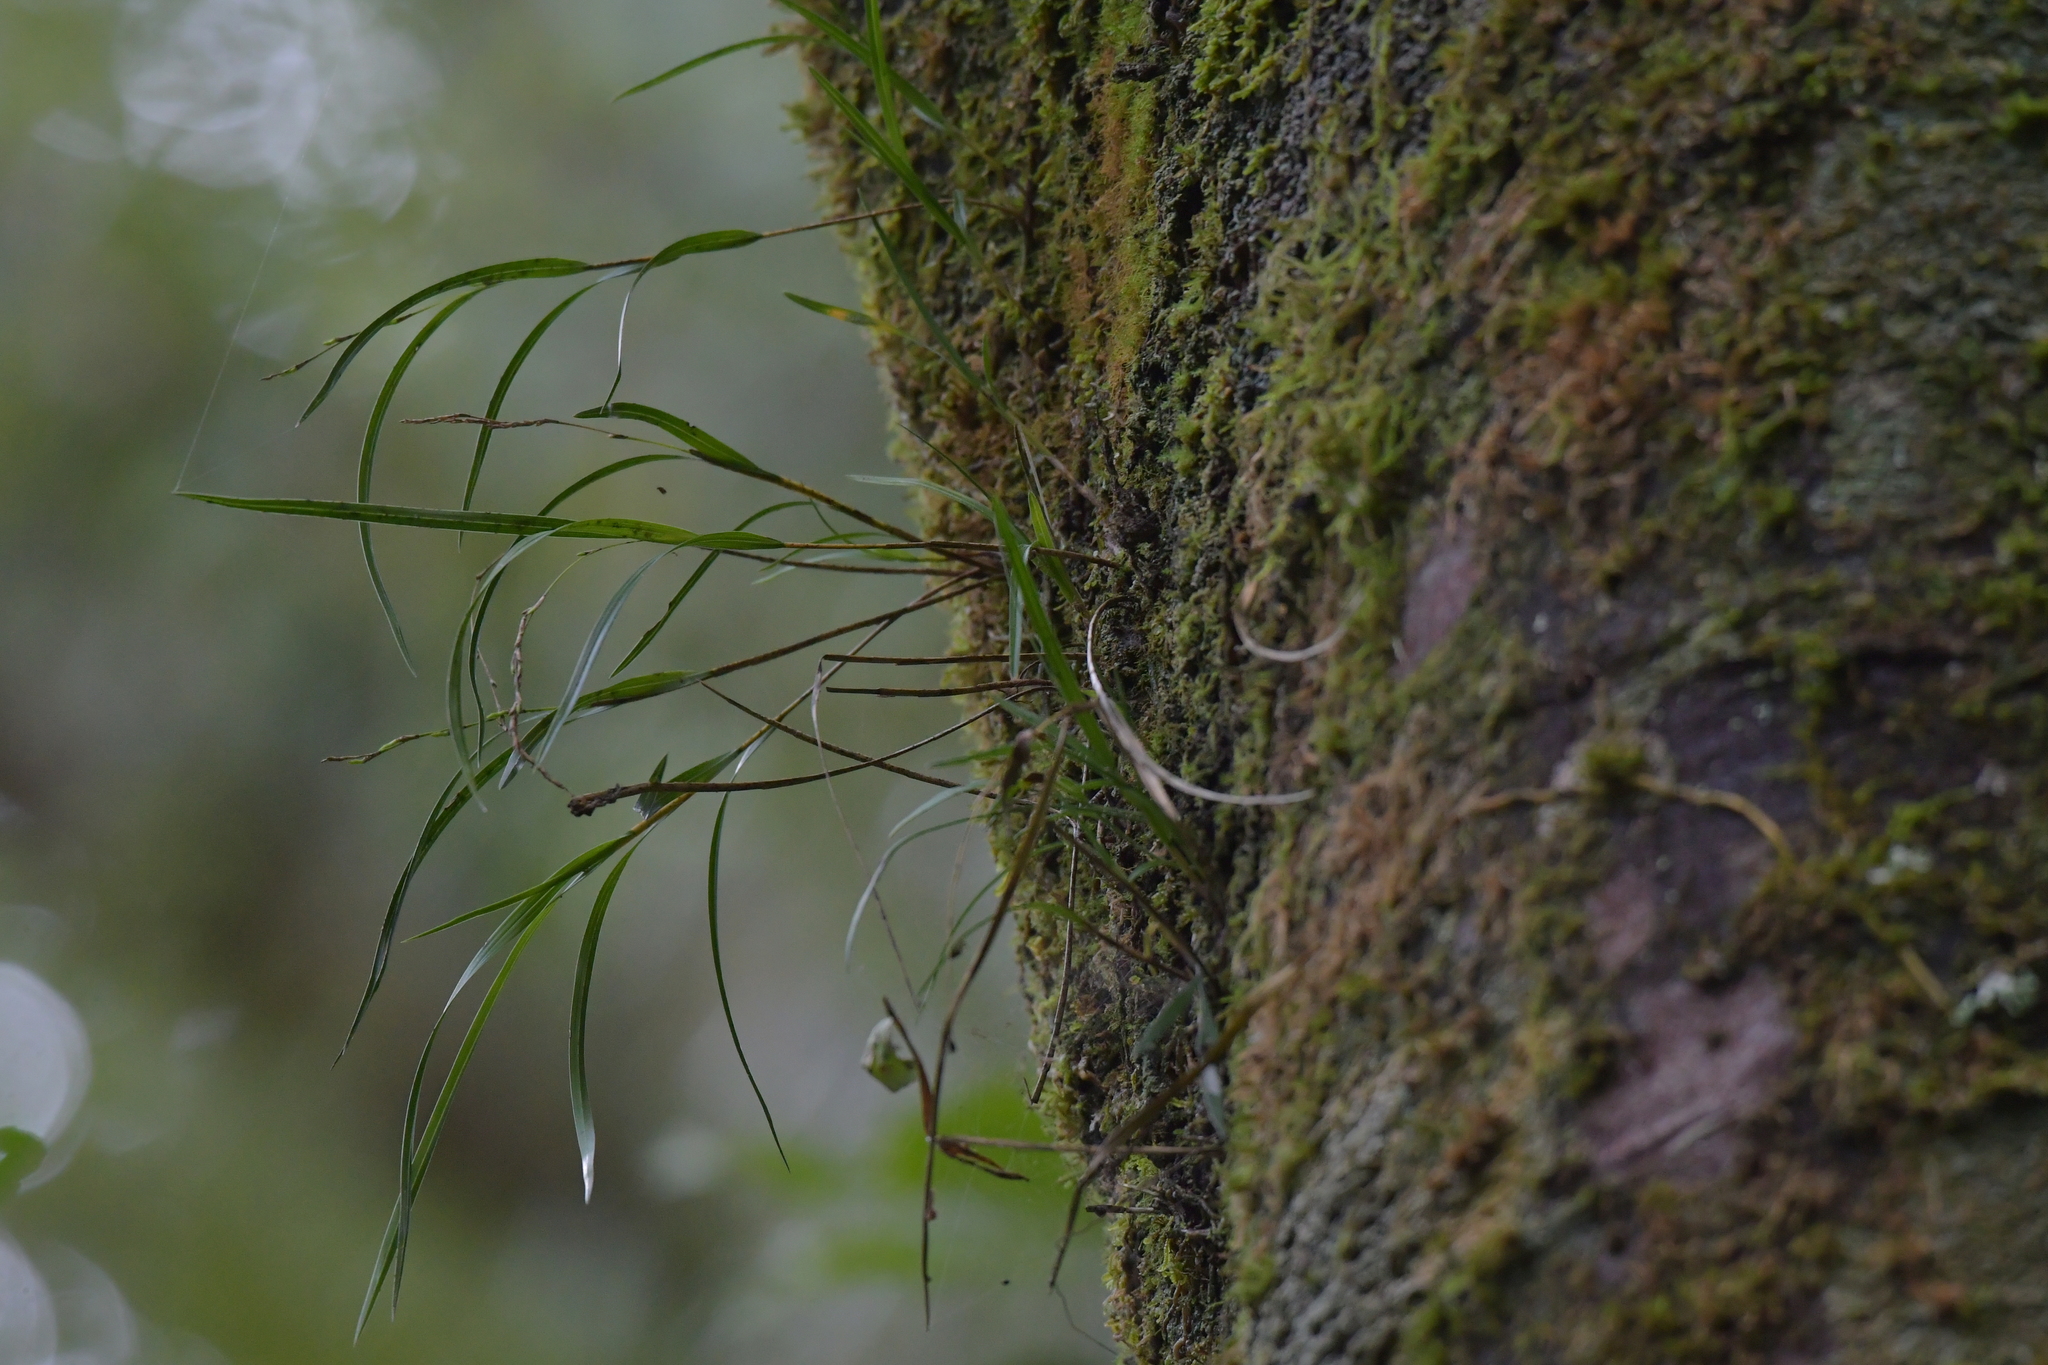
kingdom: Plantae
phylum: Tracheophyta
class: Liliopsida
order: Asparagales
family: Orchidaceae
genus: Earina
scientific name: Earina mucronata
